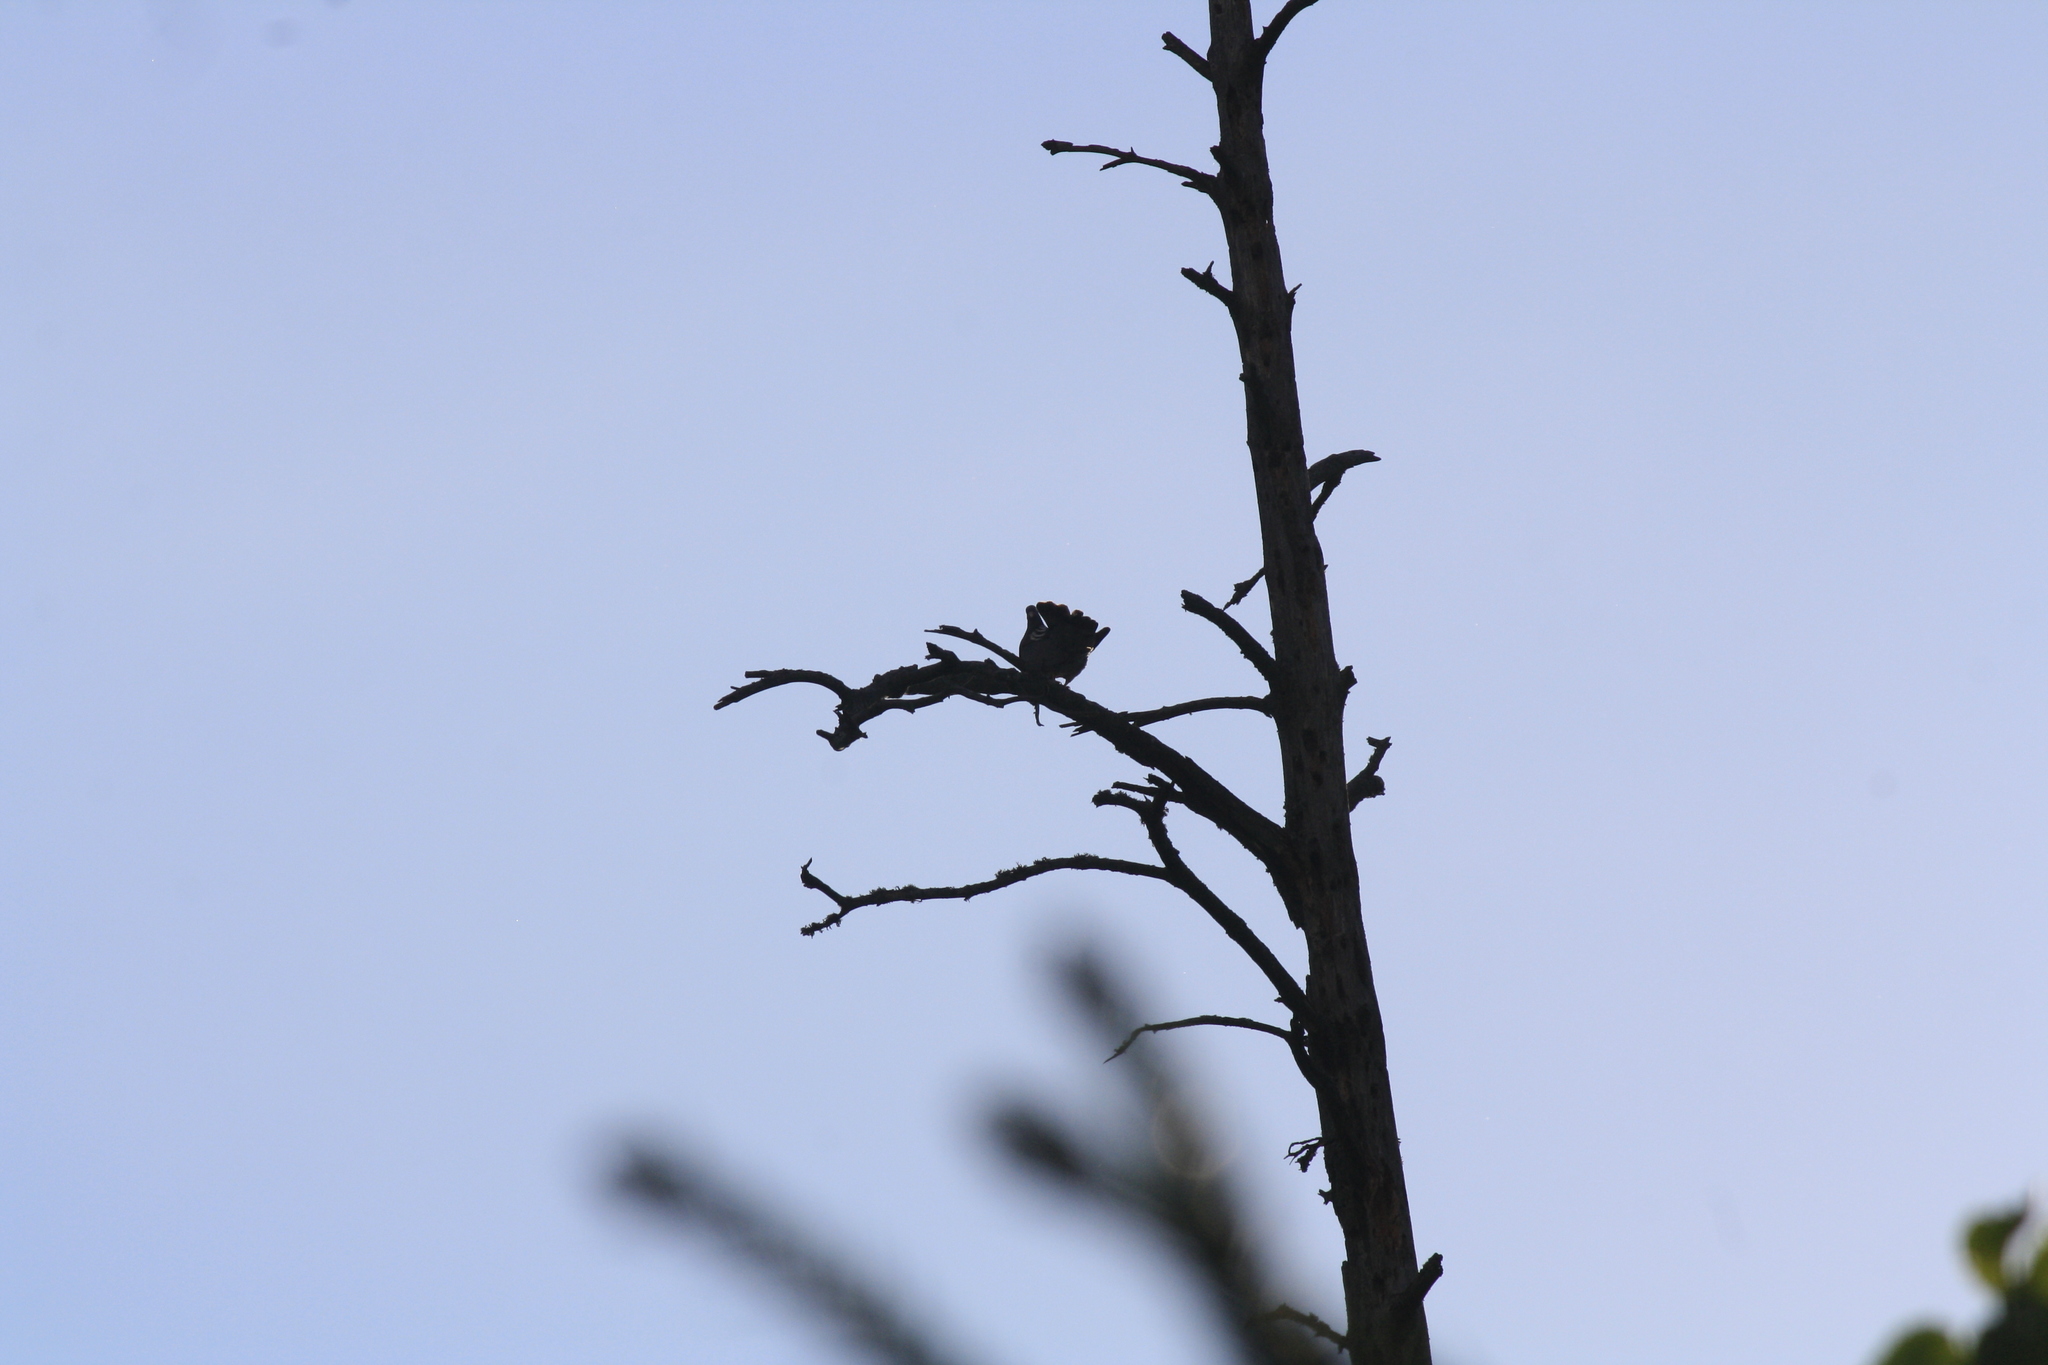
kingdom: Animalia
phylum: Chordata
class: Aves
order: Columbiformes
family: Columbidae
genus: Columba
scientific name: Columba palumbus
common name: Common wood pigeon
